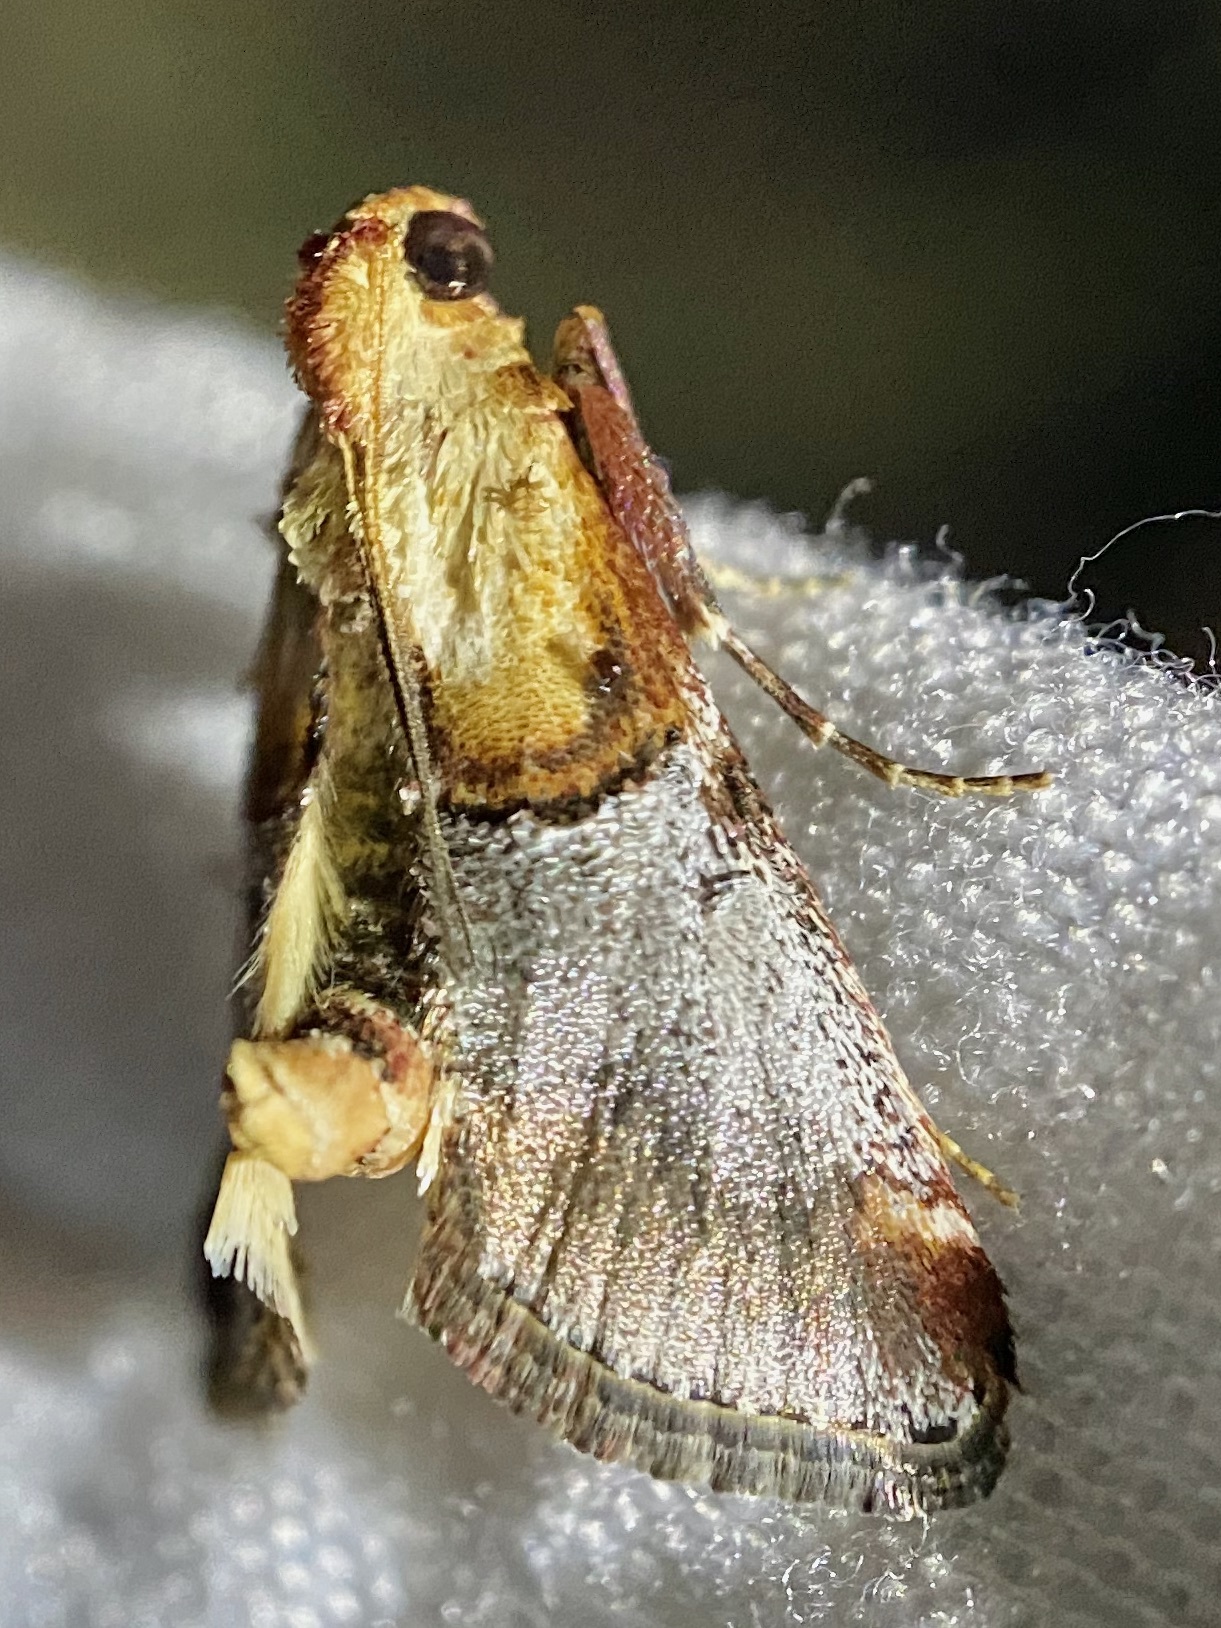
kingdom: Animalia
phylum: Arthropoda
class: Insecta
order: Lepidoptera
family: Pyralidae
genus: Cacozelia
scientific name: Cacozelia basiochrealis
